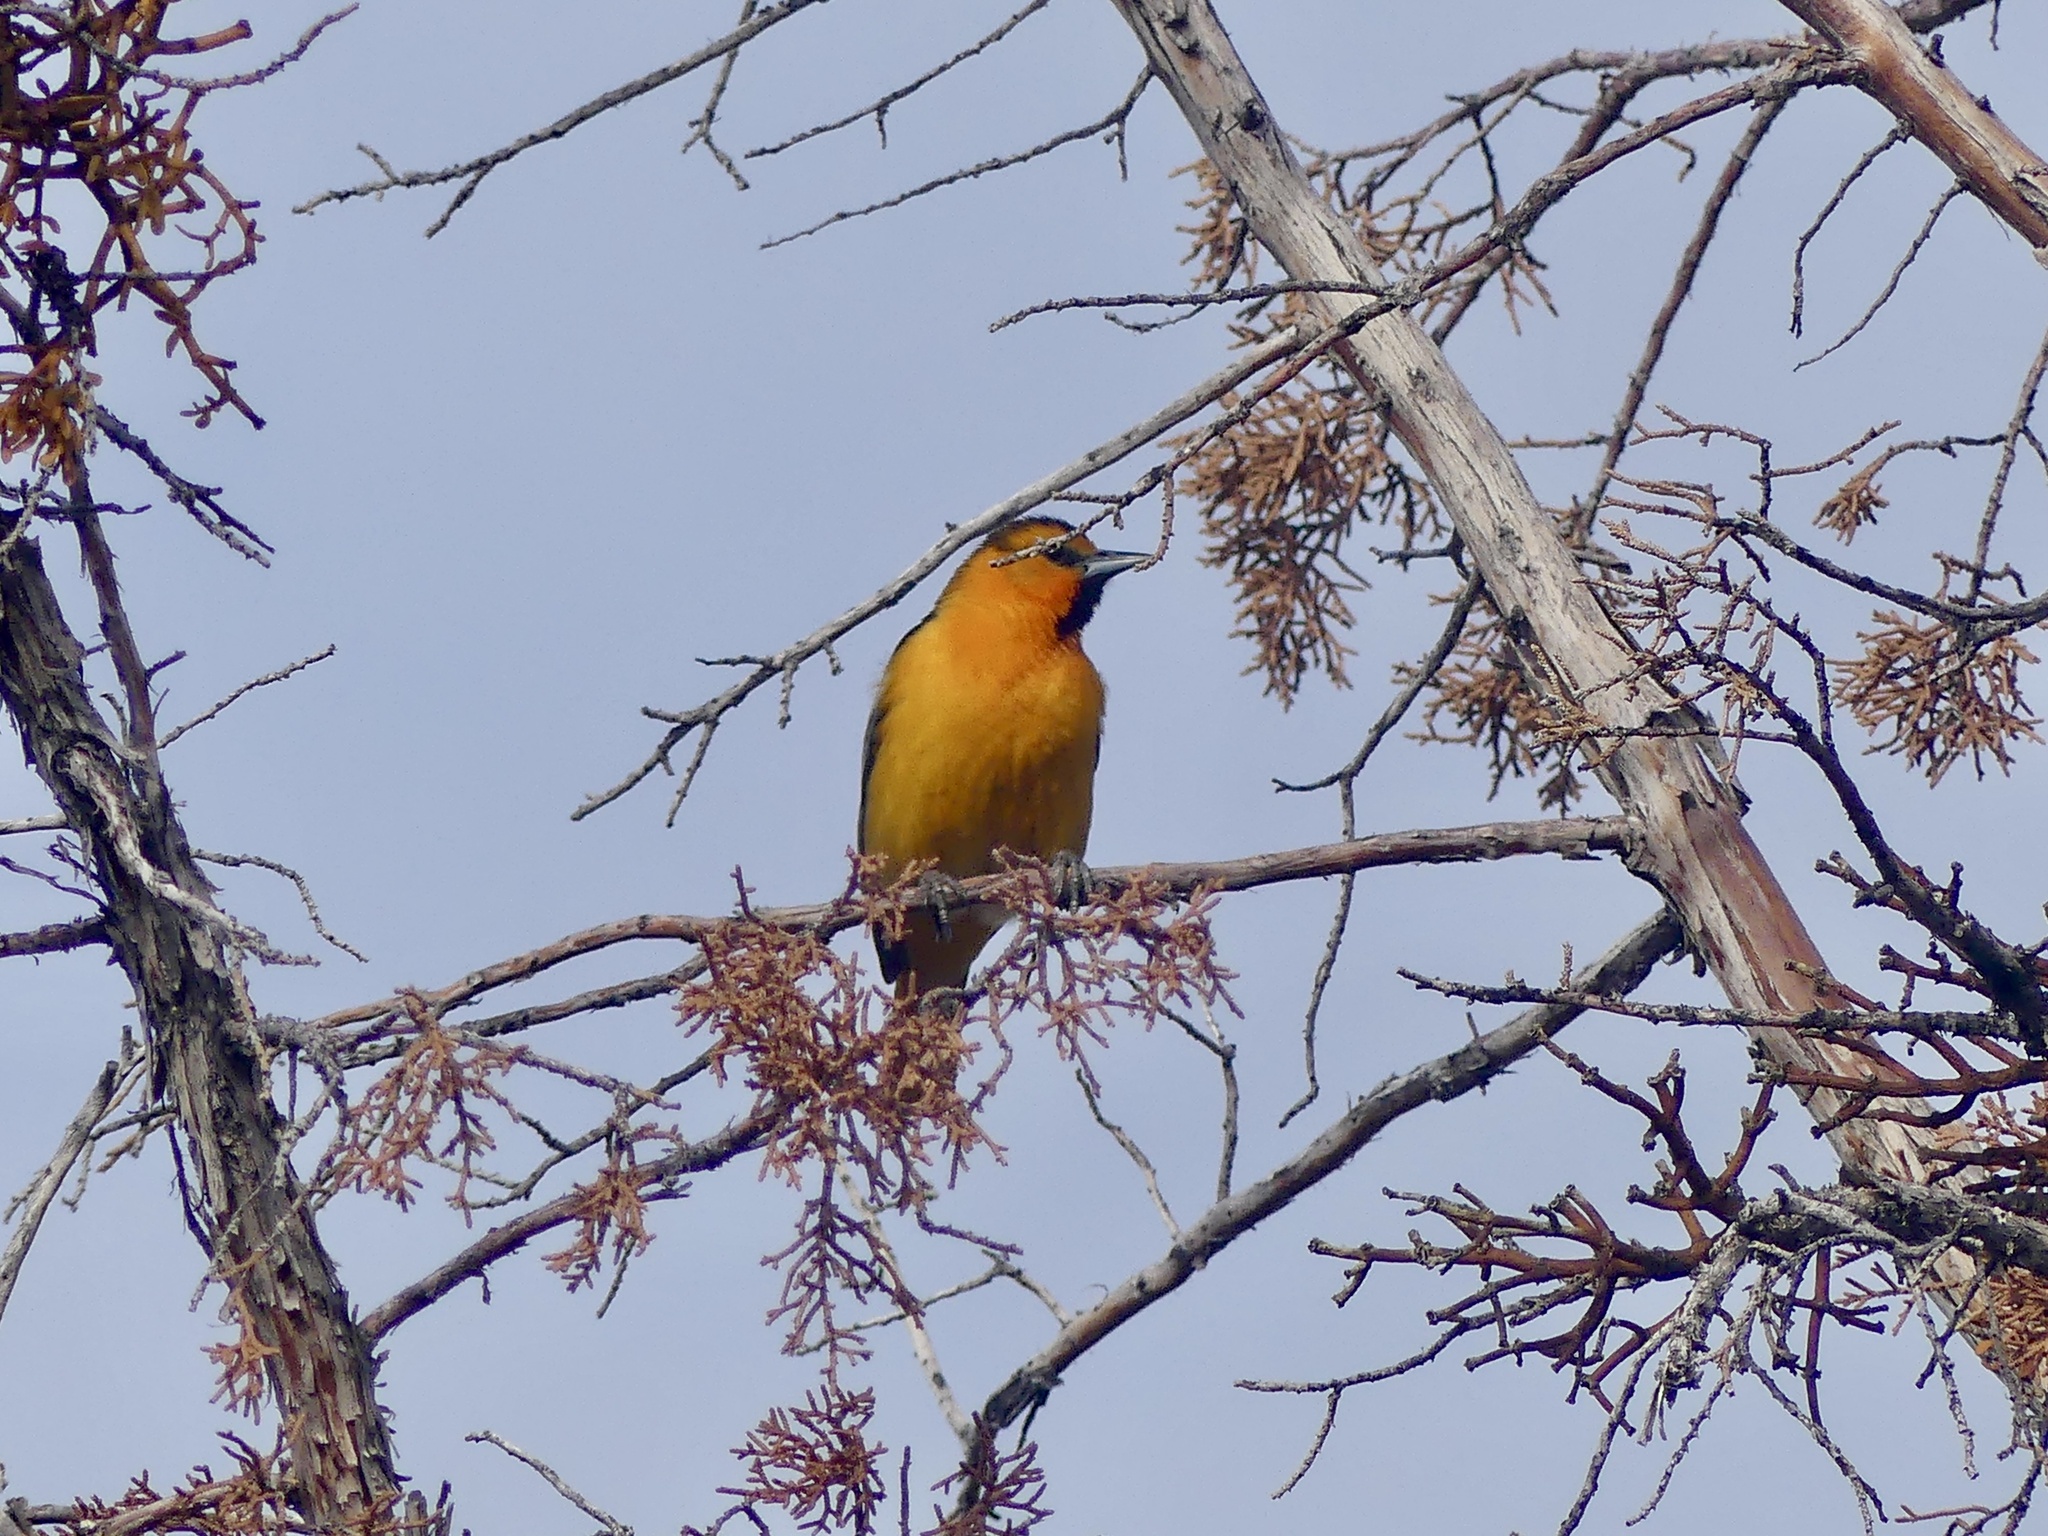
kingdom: Animalia
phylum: Chordata
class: Aves
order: Passeriformes
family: Icteridae
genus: Icterus
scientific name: Icterus bullockii
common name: Bullock's oriole
